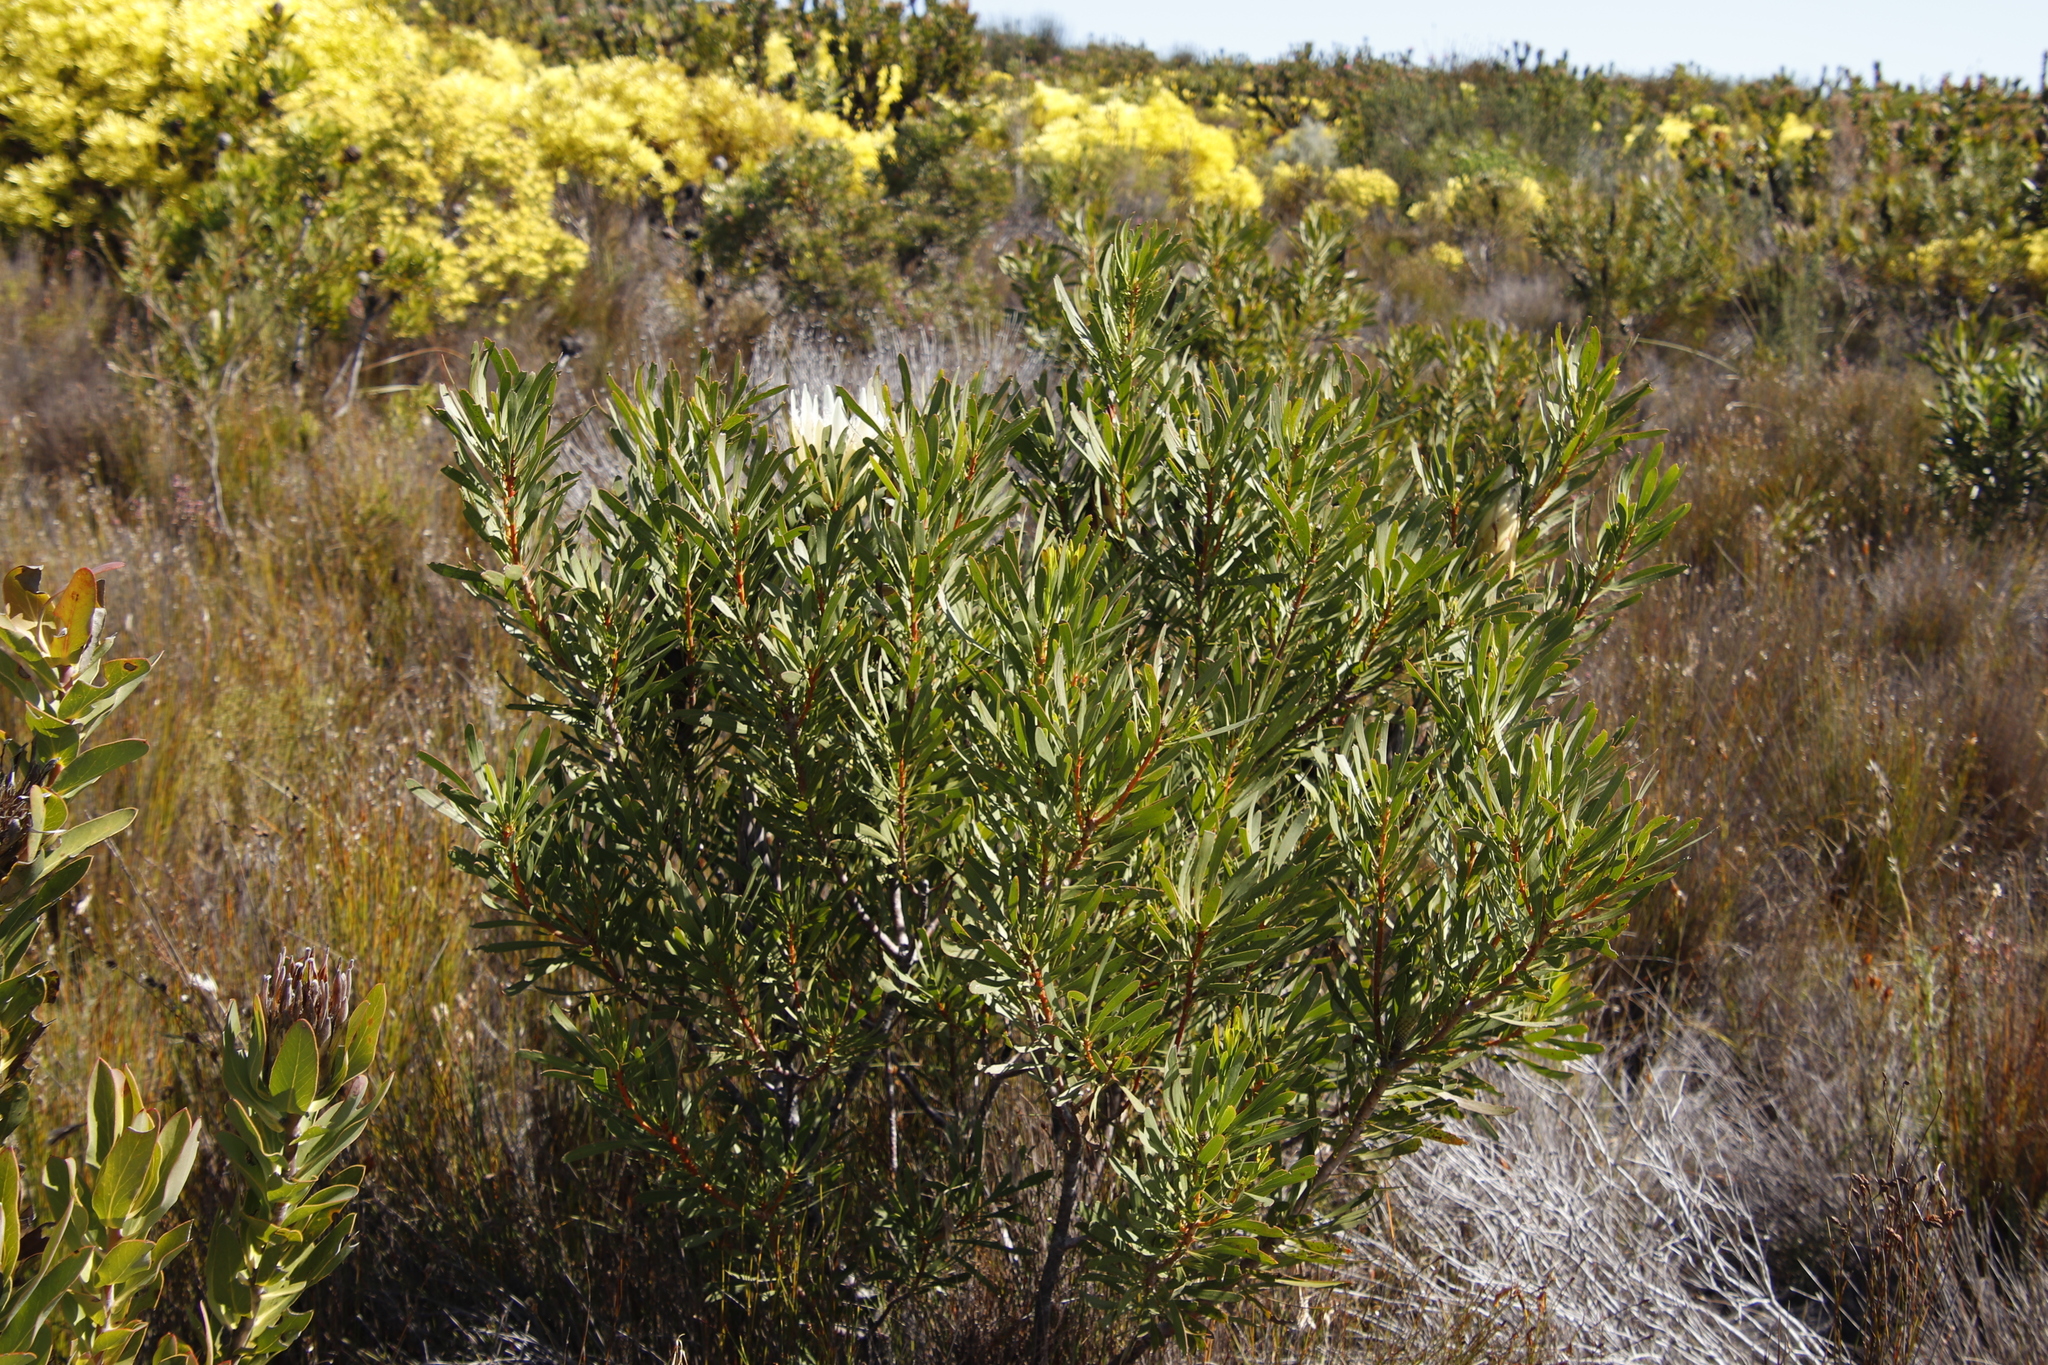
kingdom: Plantae
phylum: Tracheophyta
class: Magnoliopsida
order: Proteales
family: Proteaceae
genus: Protea
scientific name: Protea repens
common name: Sugarbush
